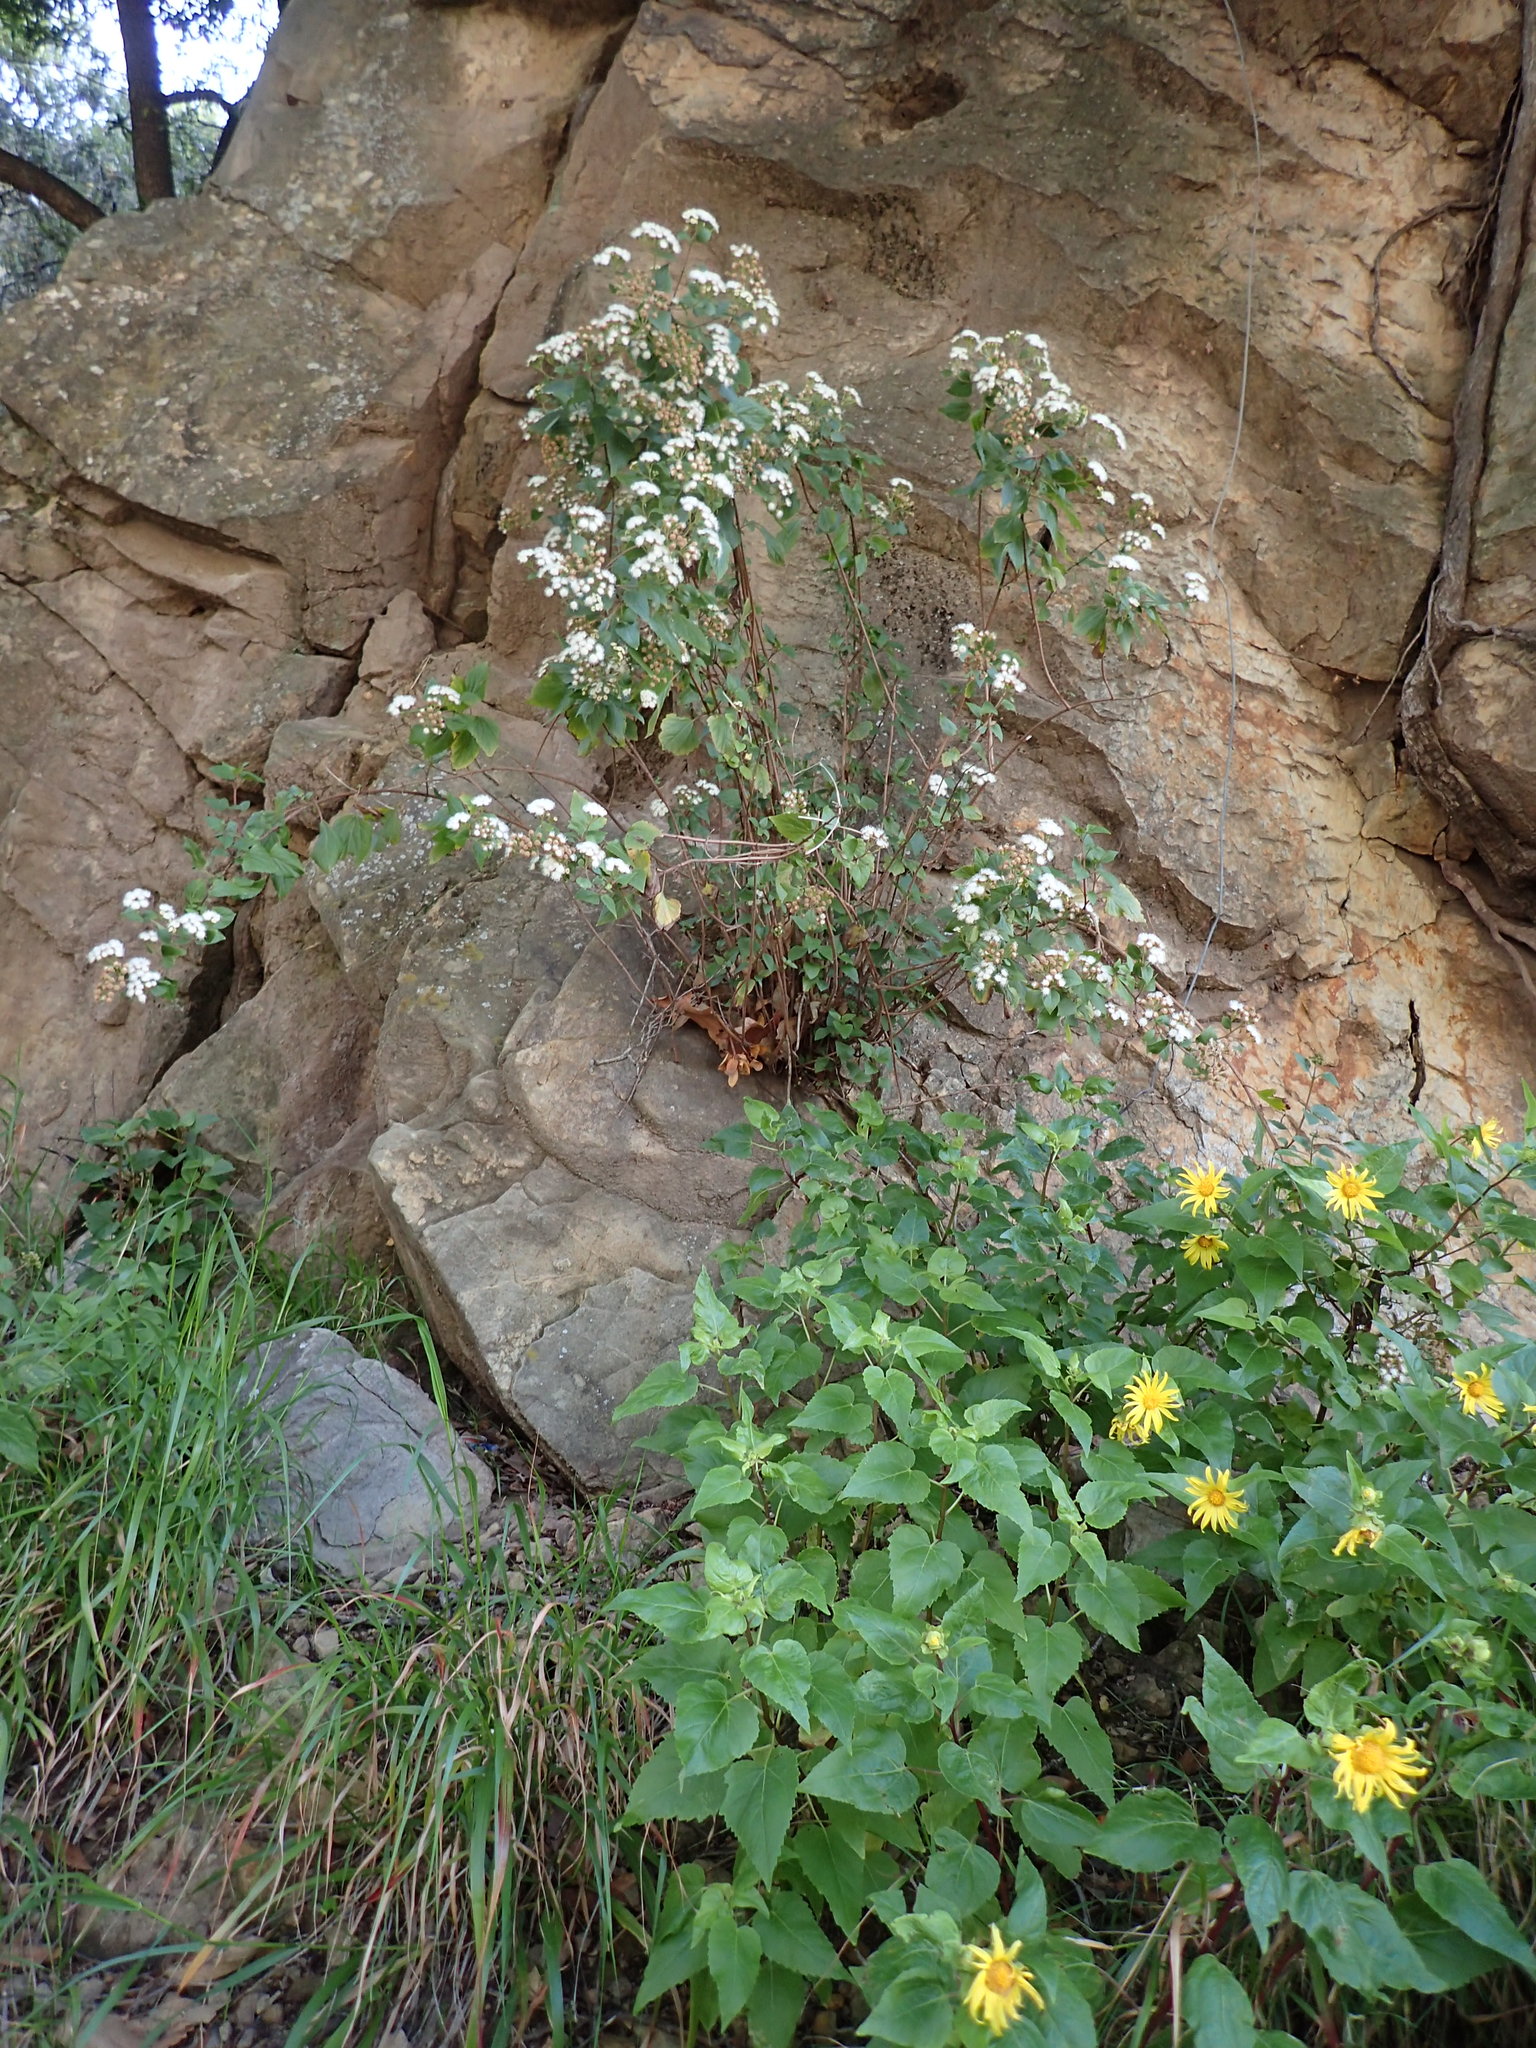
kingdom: Plantae
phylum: Tracheophyta
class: Magnoliopsida
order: Asterales
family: Asteraceae
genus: Ageratina
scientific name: Ageratina adenophora
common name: Sticky snakeroot
